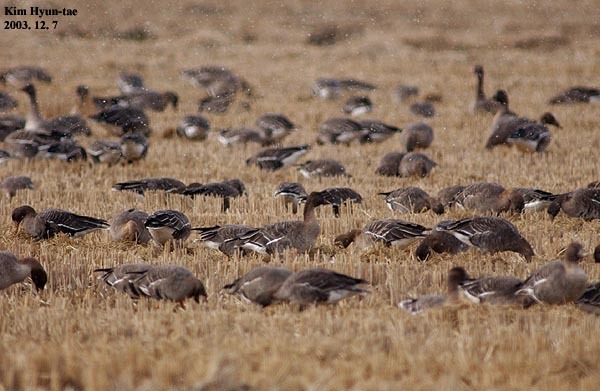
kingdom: Animalia
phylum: Chordata
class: Aves
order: Anseriformes
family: Anatidae
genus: Anser
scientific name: Anser fabalis
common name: Bean goose
